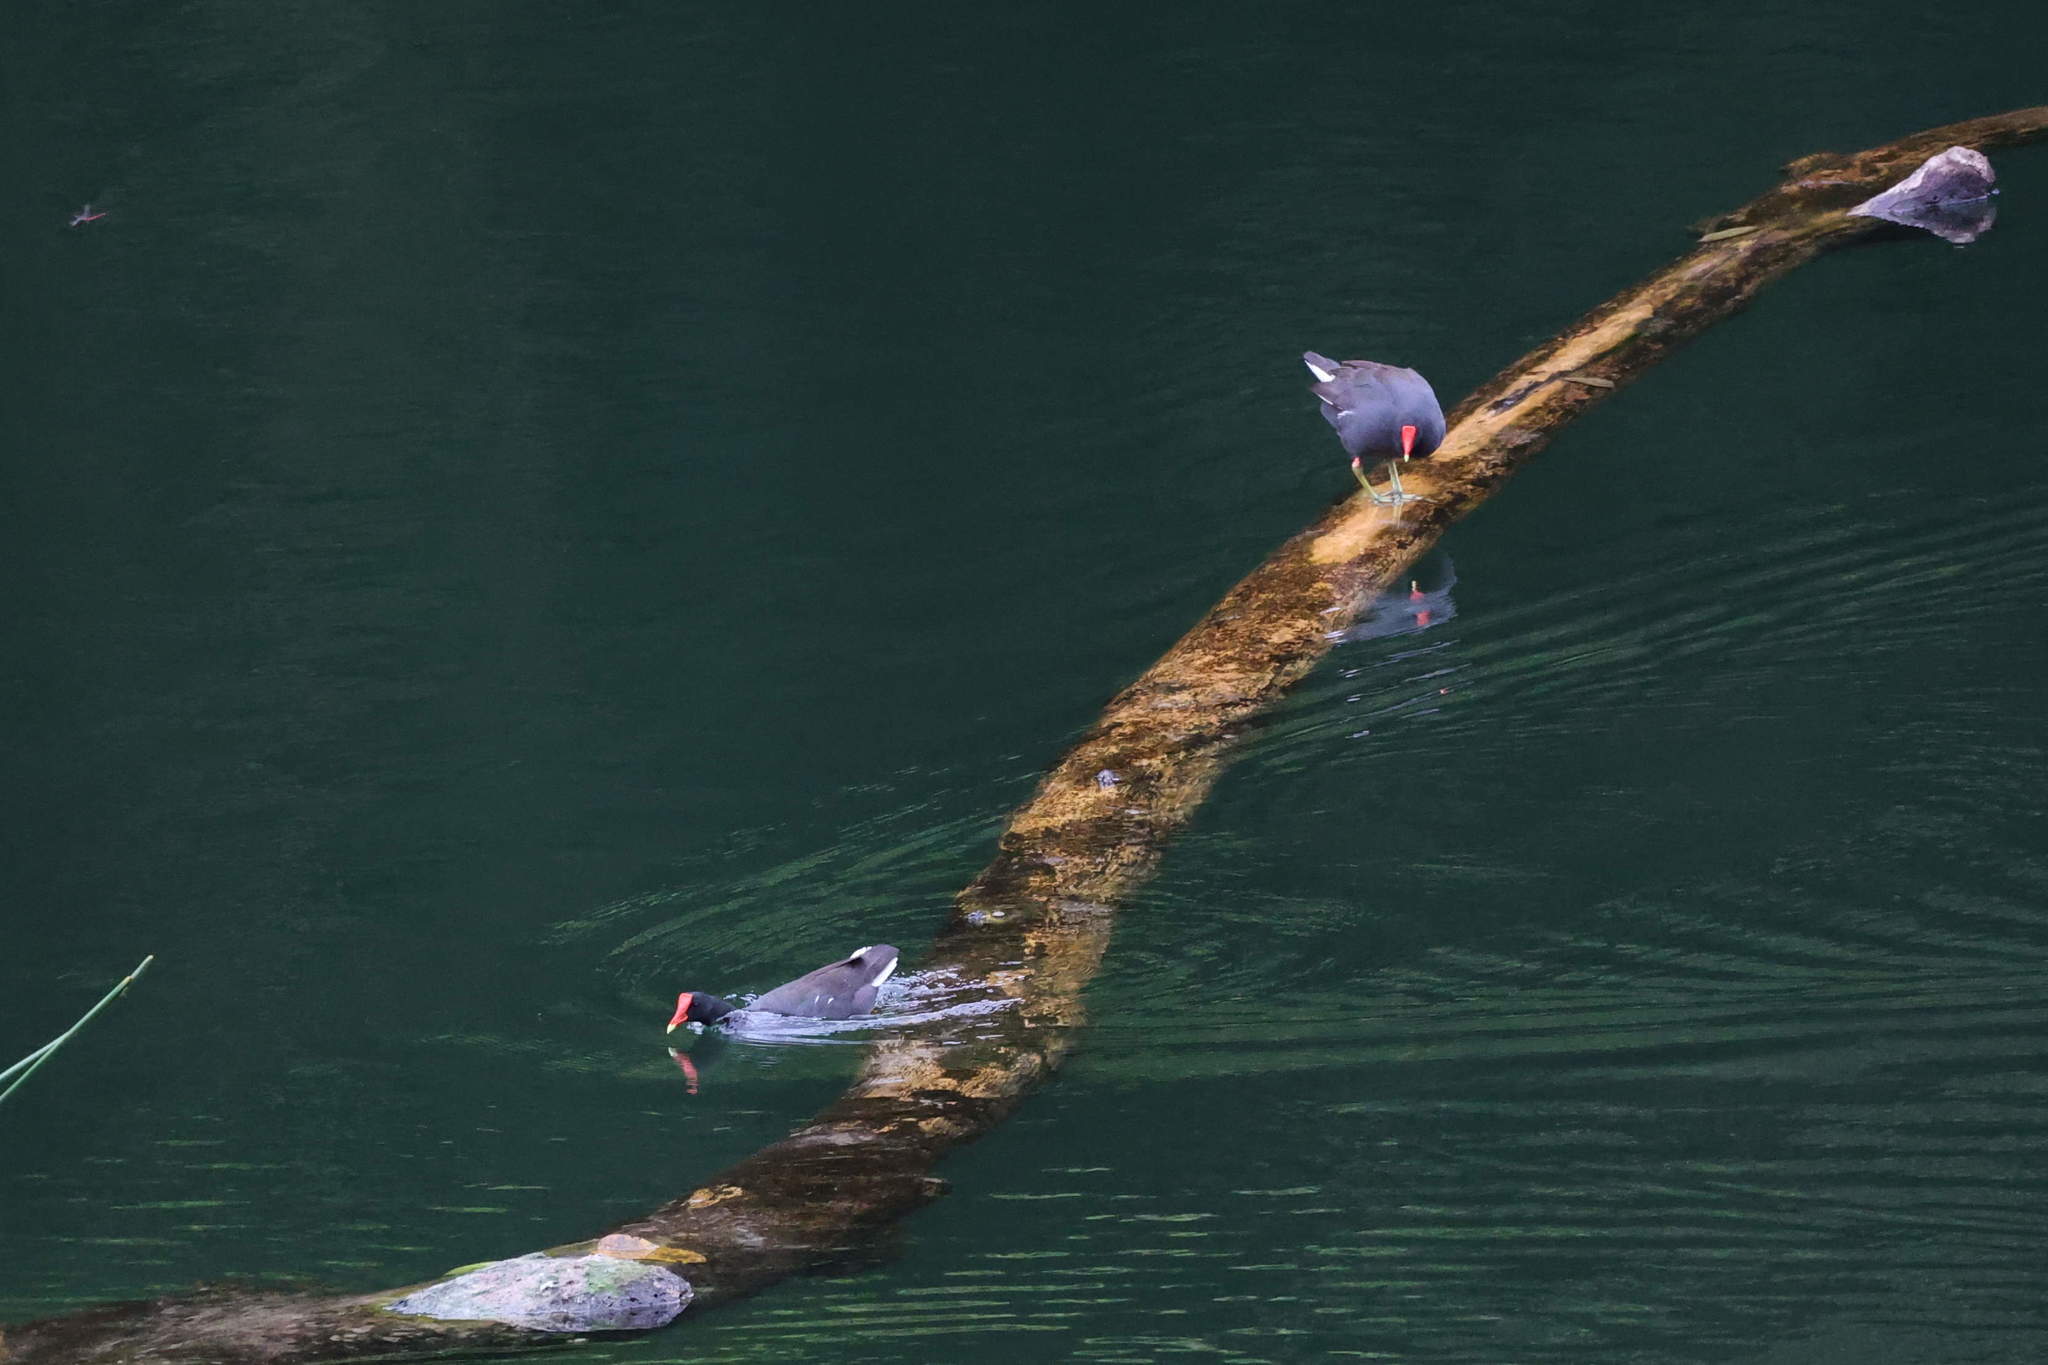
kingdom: Animalia
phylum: Chordata
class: Aves
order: Gruiformes
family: Rallidae
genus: Gallinula
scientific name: Gallinula chloropus
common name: Common moorhen
